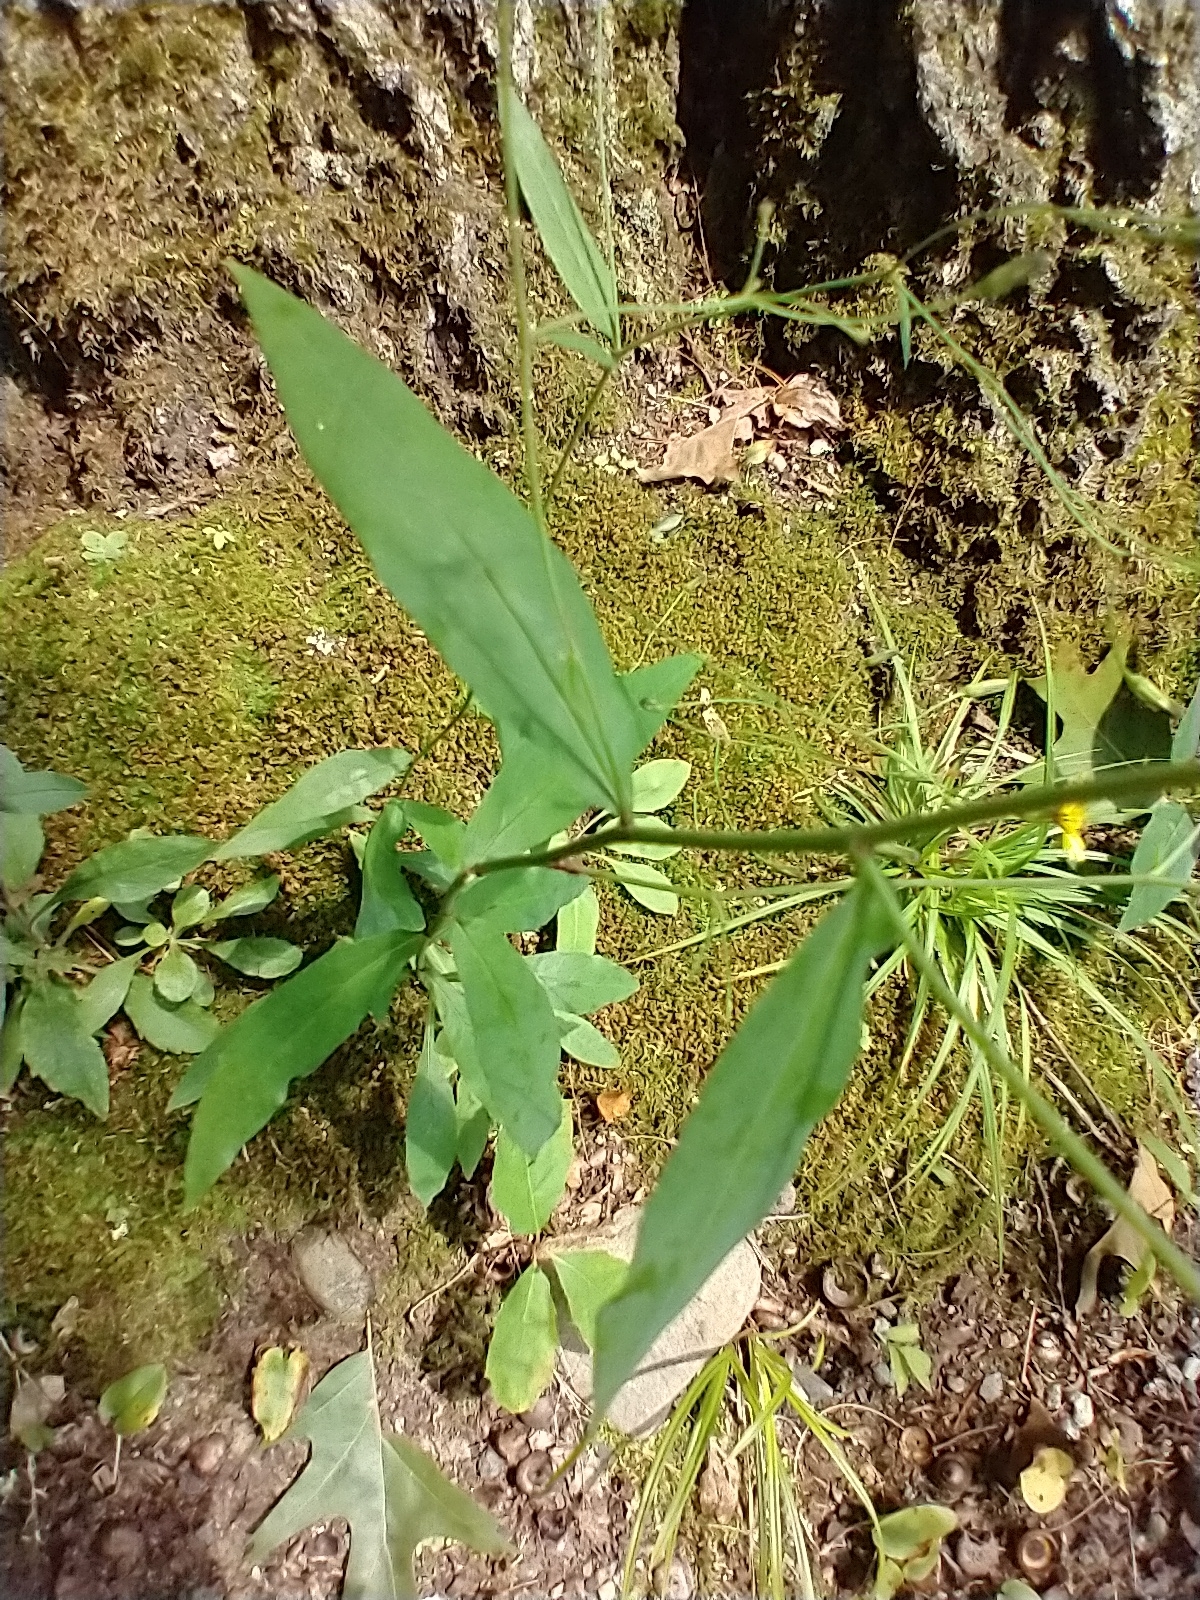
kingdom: Plantae
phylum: Tracheophyta
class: Magnoliopsida
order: Asterales
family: Asteraceae
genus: Hieracium
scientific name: Hieracium paniculatum
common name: Allegheny hawkweed
